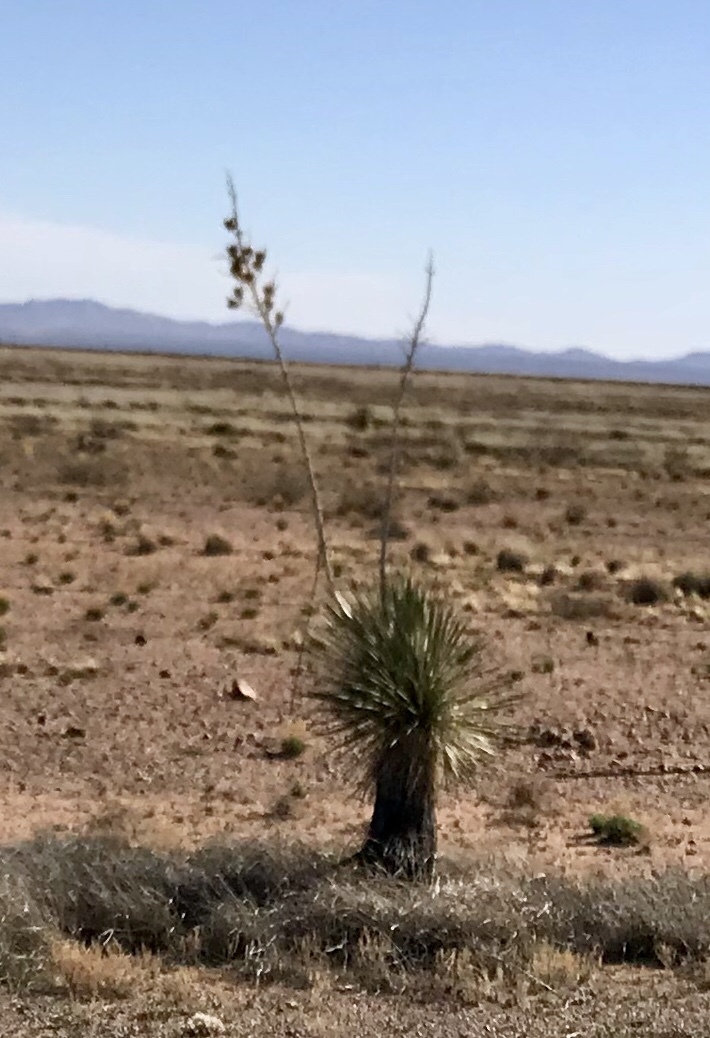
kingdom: Plantae
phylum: Tracheophyta
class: Liliopsida
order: Asparagales
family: Asparagaceae
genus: Yucca
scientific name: Yucca elata
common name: Palmella
